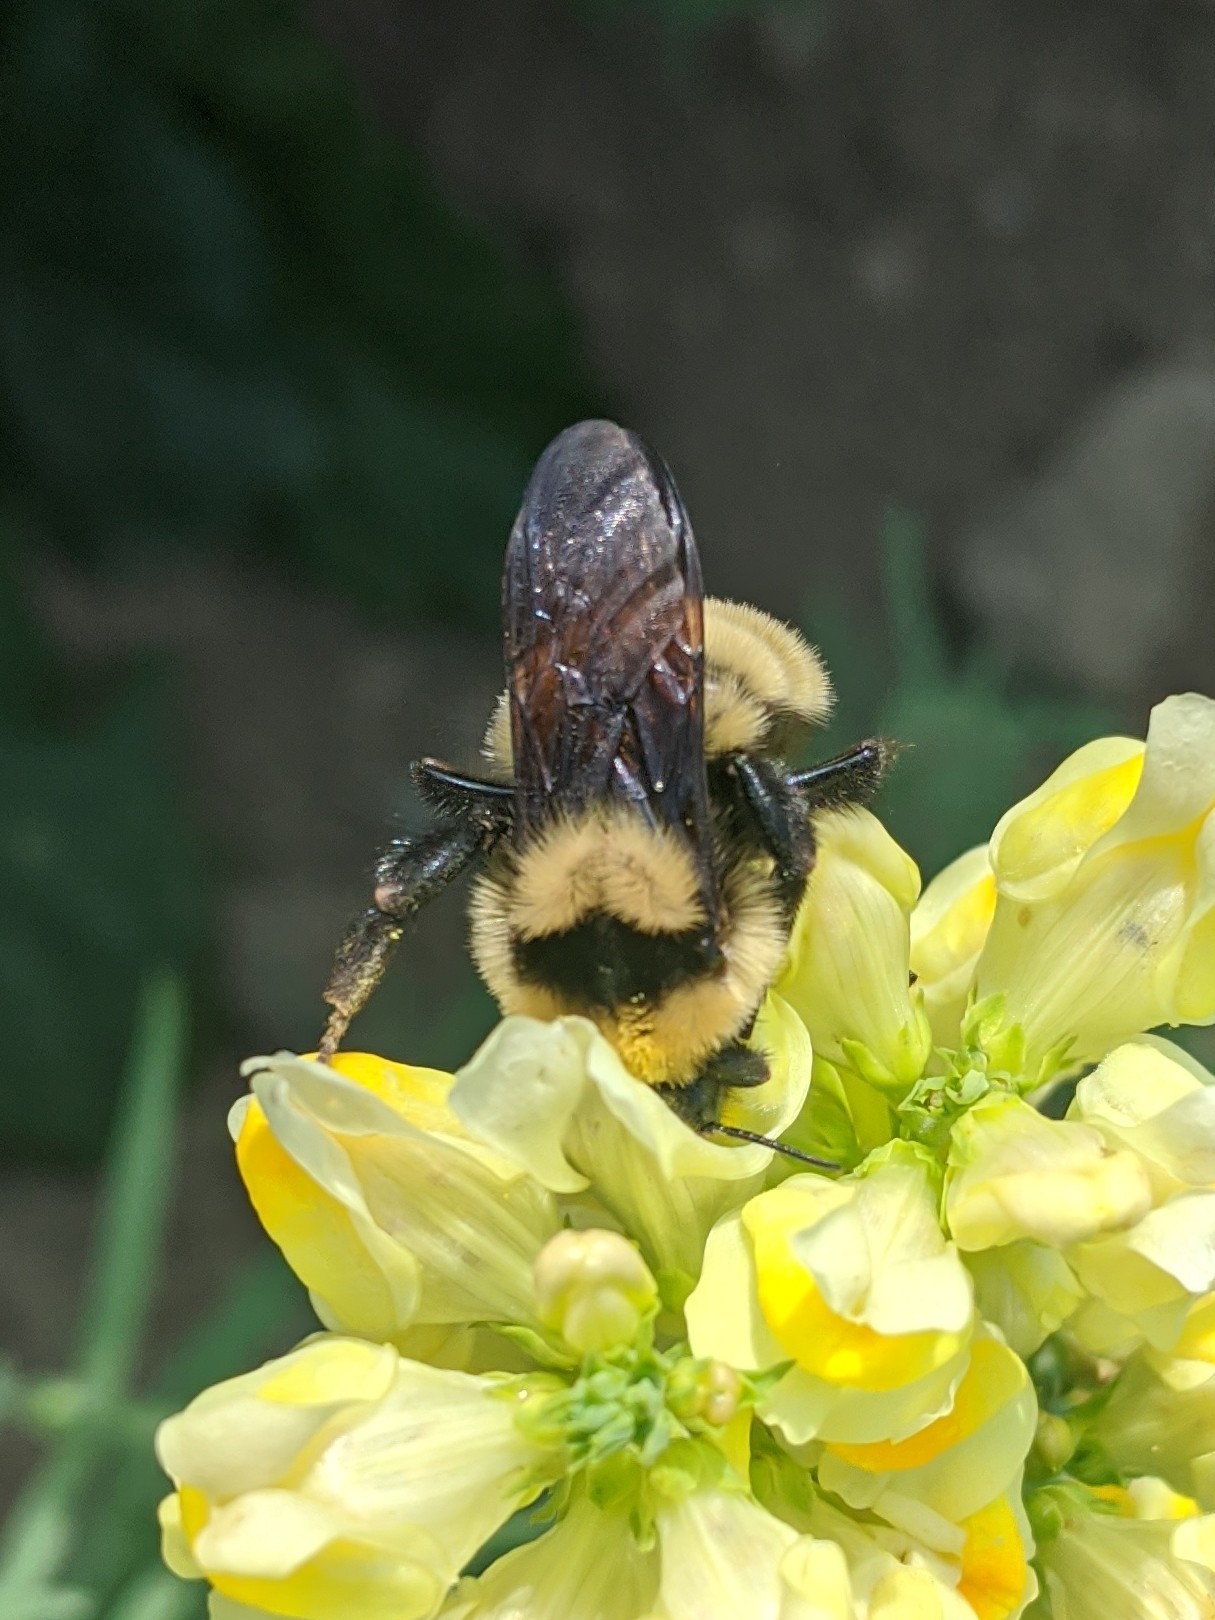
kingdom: Animalia
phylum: Arthropoda
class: Insecta
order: Hymenoptera
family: Apidae
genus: Bombus
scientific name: Bombus fervidus
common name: Yellow bumble bee
